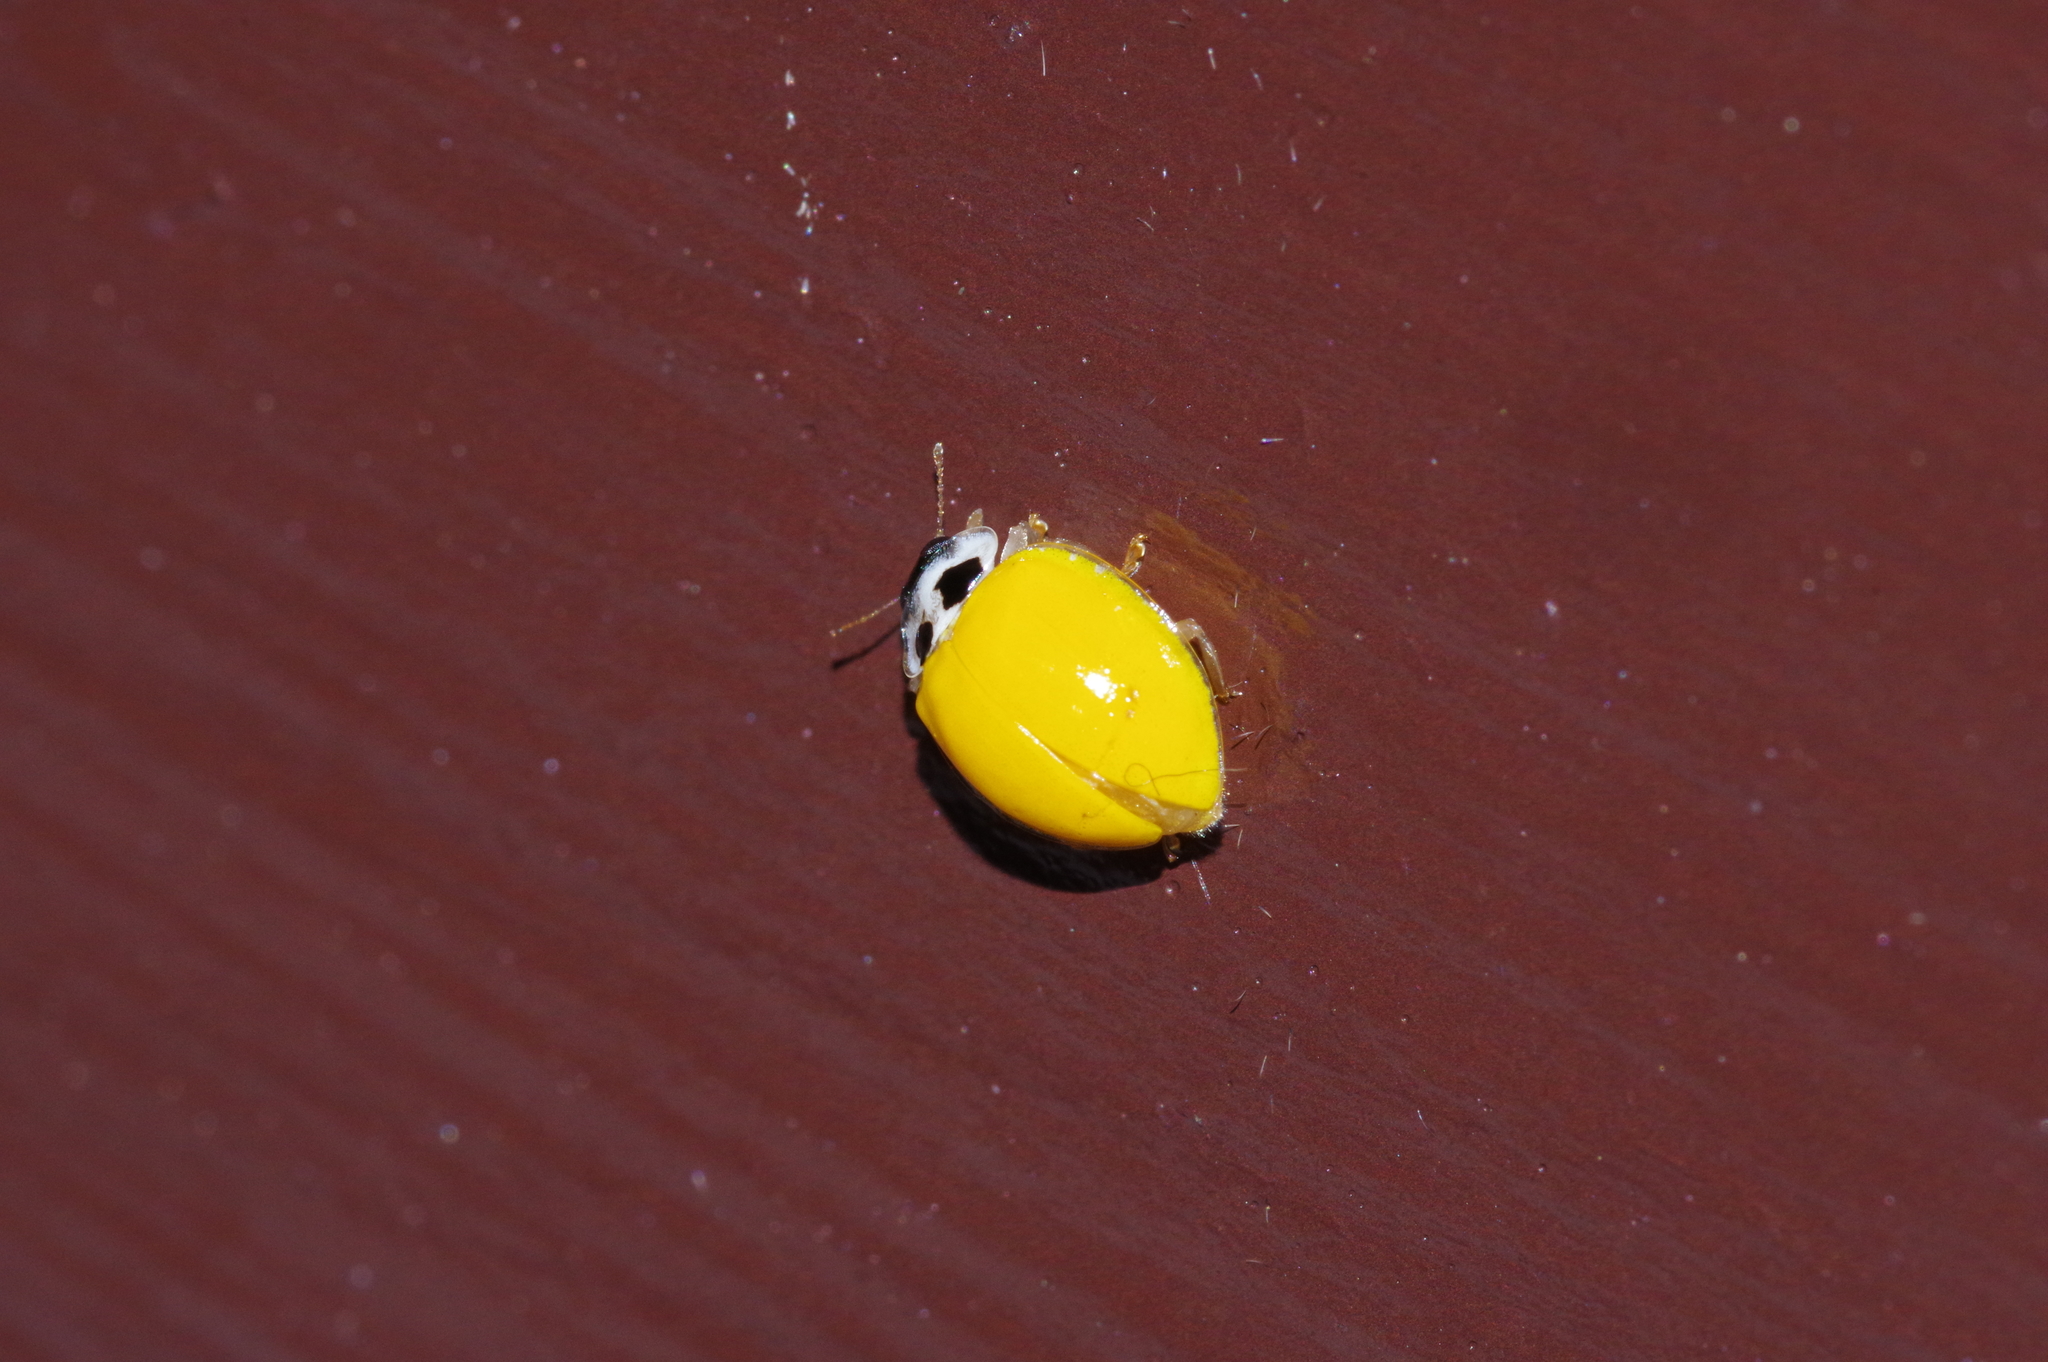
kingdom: Animalia
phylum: Arthropoda
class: Insecta
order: Coleoptera
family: Coccinellidae
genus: Illeis
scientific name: Illeis koebelei
